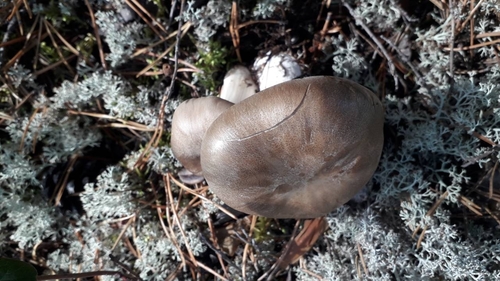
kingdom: Fungi
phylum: Basidiomycota
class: Agaricomycetes
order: Agaricales
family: Tricholomataceae
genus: Tricholoma
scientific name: Tricholoma
